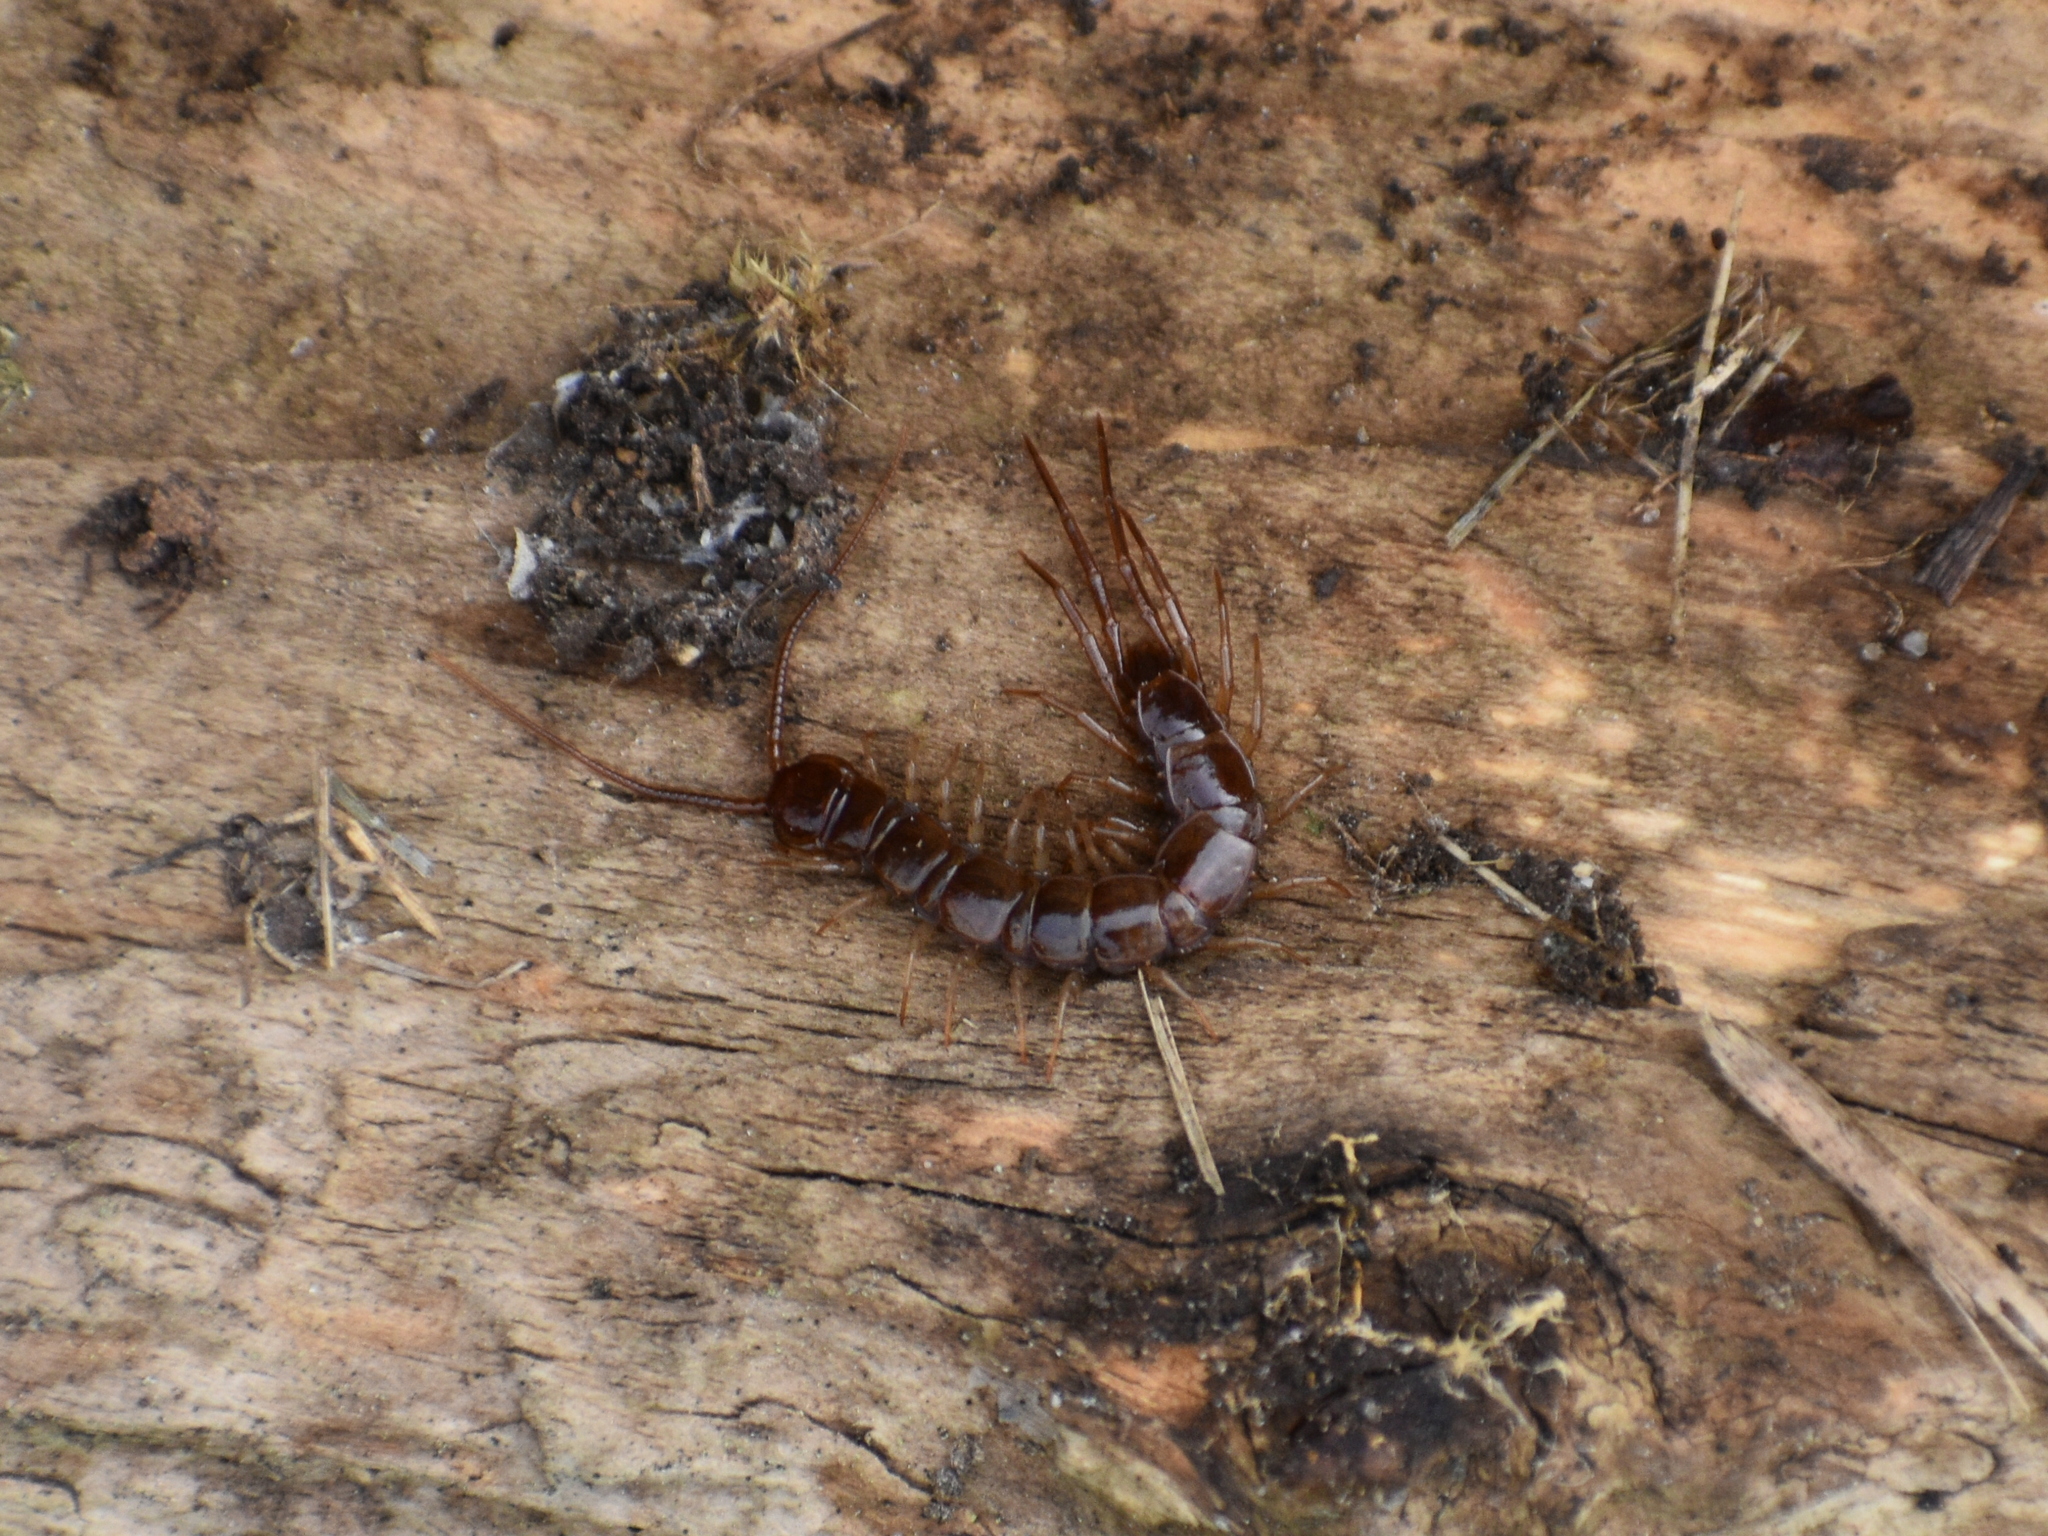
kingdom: Animalia
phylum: Arthropoda
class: Chilopoda
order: Lithobiomorpha
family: Lithobiidae
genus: Lithobius
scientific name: Lithobius forficatus
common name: Centipede
